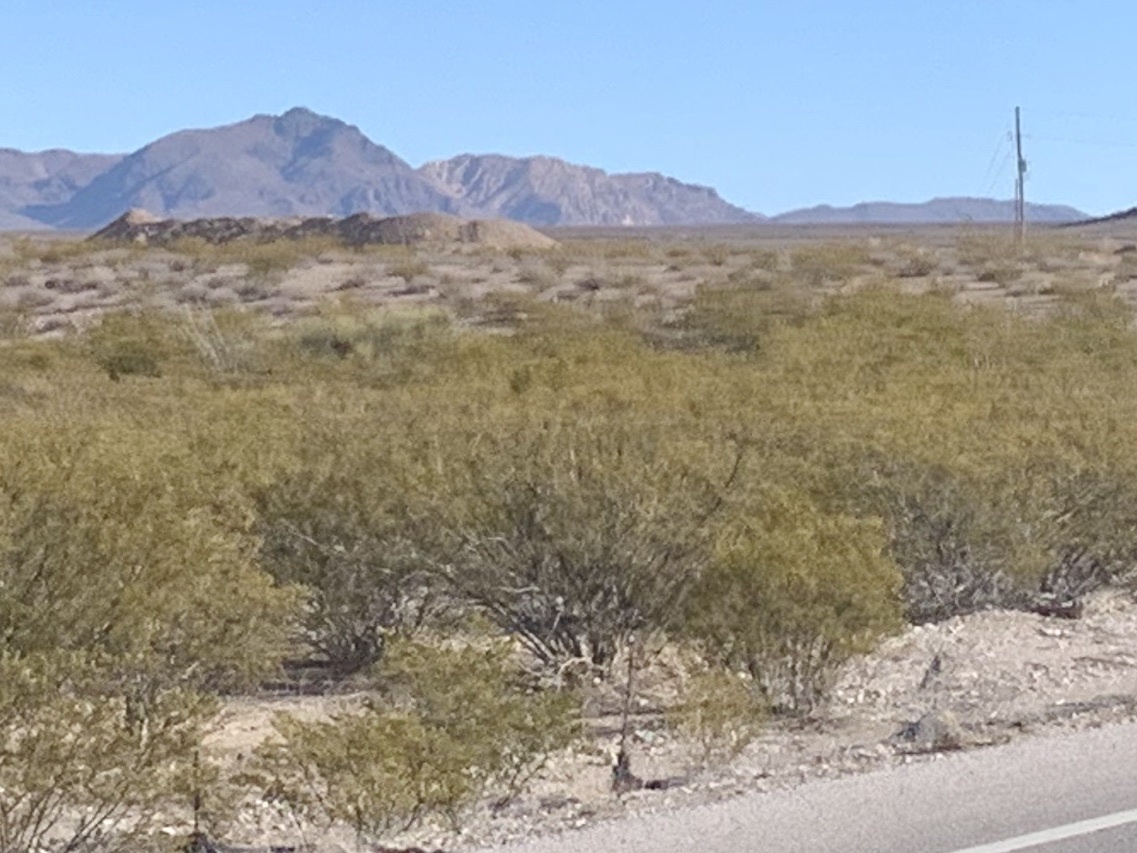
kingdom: Plantae
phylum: Tracheophyta
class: Magnoliopsida
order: Zygophyllales
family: Zygophyllaceae
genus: Larrea
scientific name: Larrea tridentata
